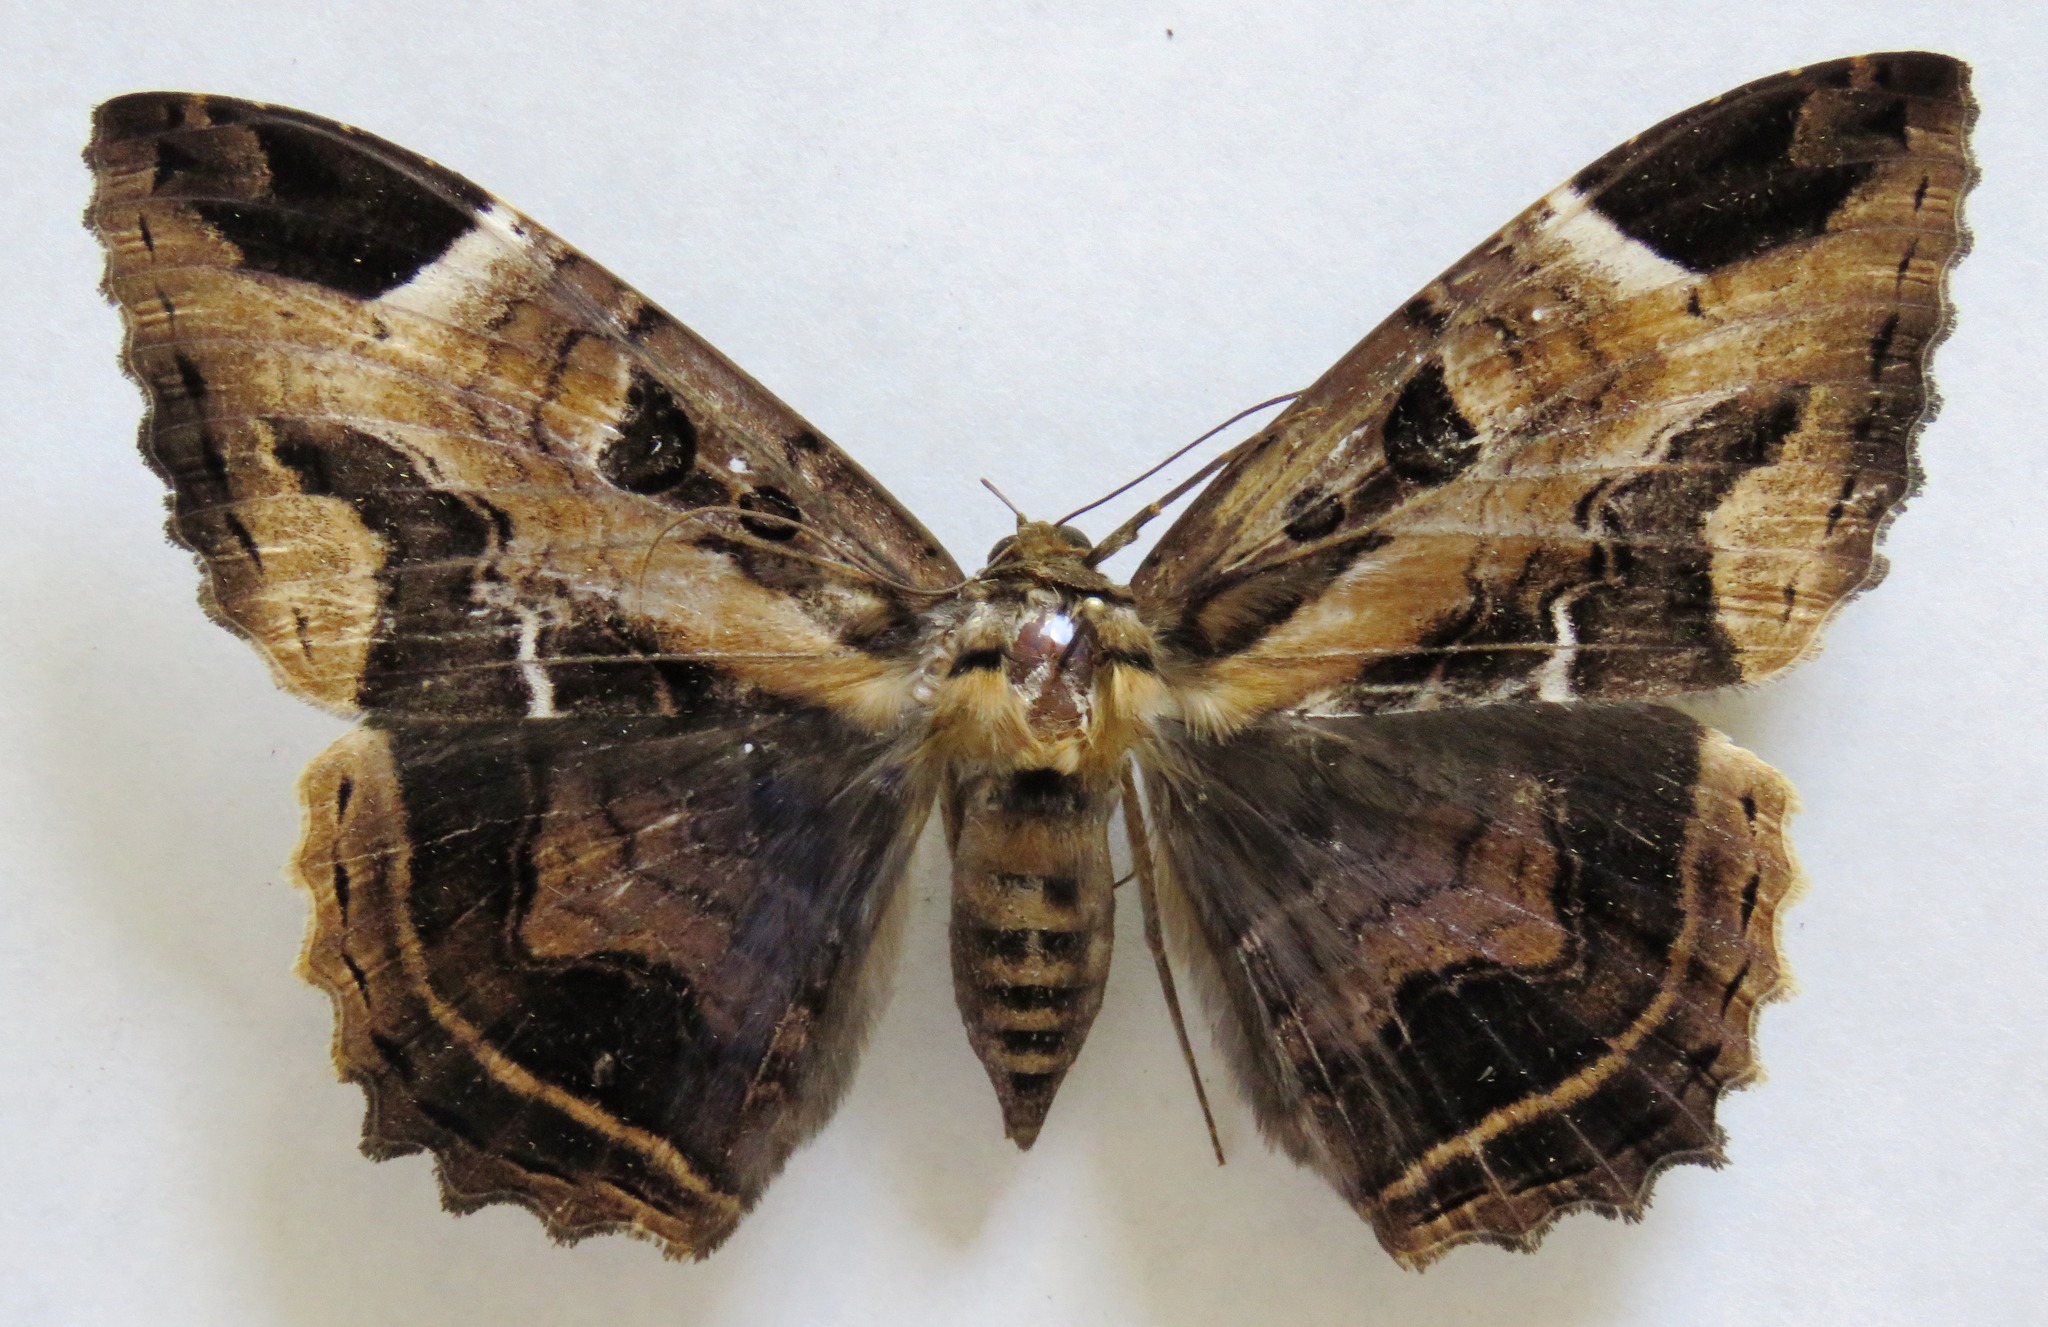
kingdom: Animalia
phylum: Arthropoda
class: Insecta
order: Lepidoptera
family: Erebidae
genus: Feigeria
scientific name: Feigeria herilia
